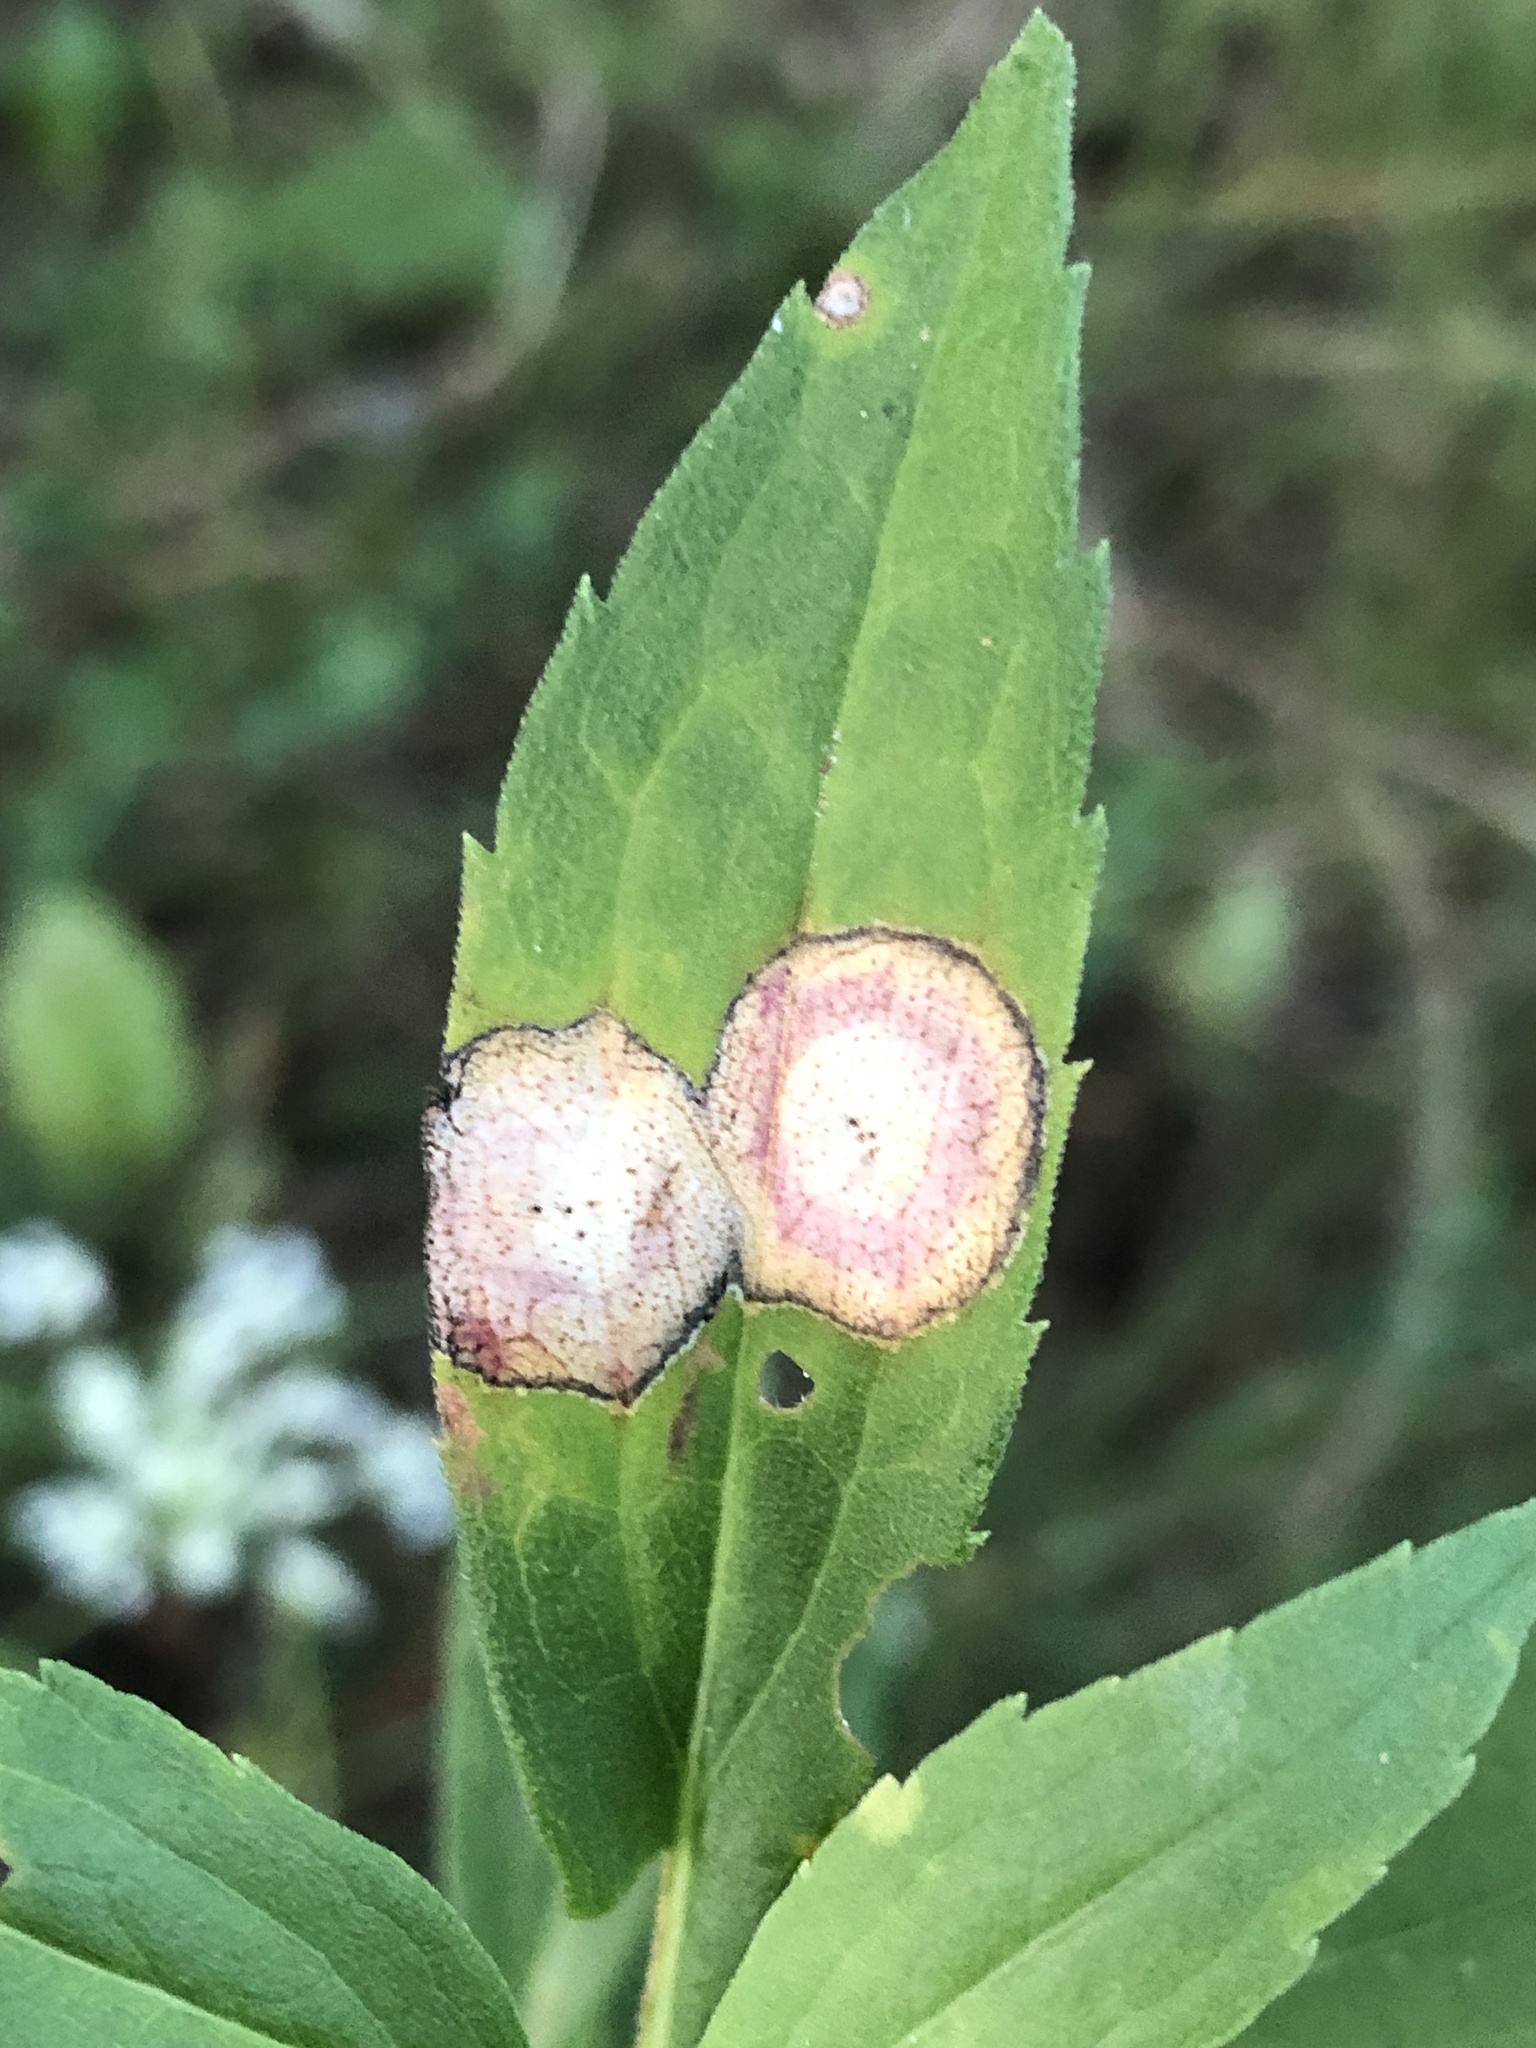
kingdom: Animalia
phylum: Arthropoda
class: Insecta
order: Diptera
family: Cecidomyiidae
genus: Asteromyia
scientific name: Asteromyia carbonifera
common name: Carbonifera goldenrod gall midge
